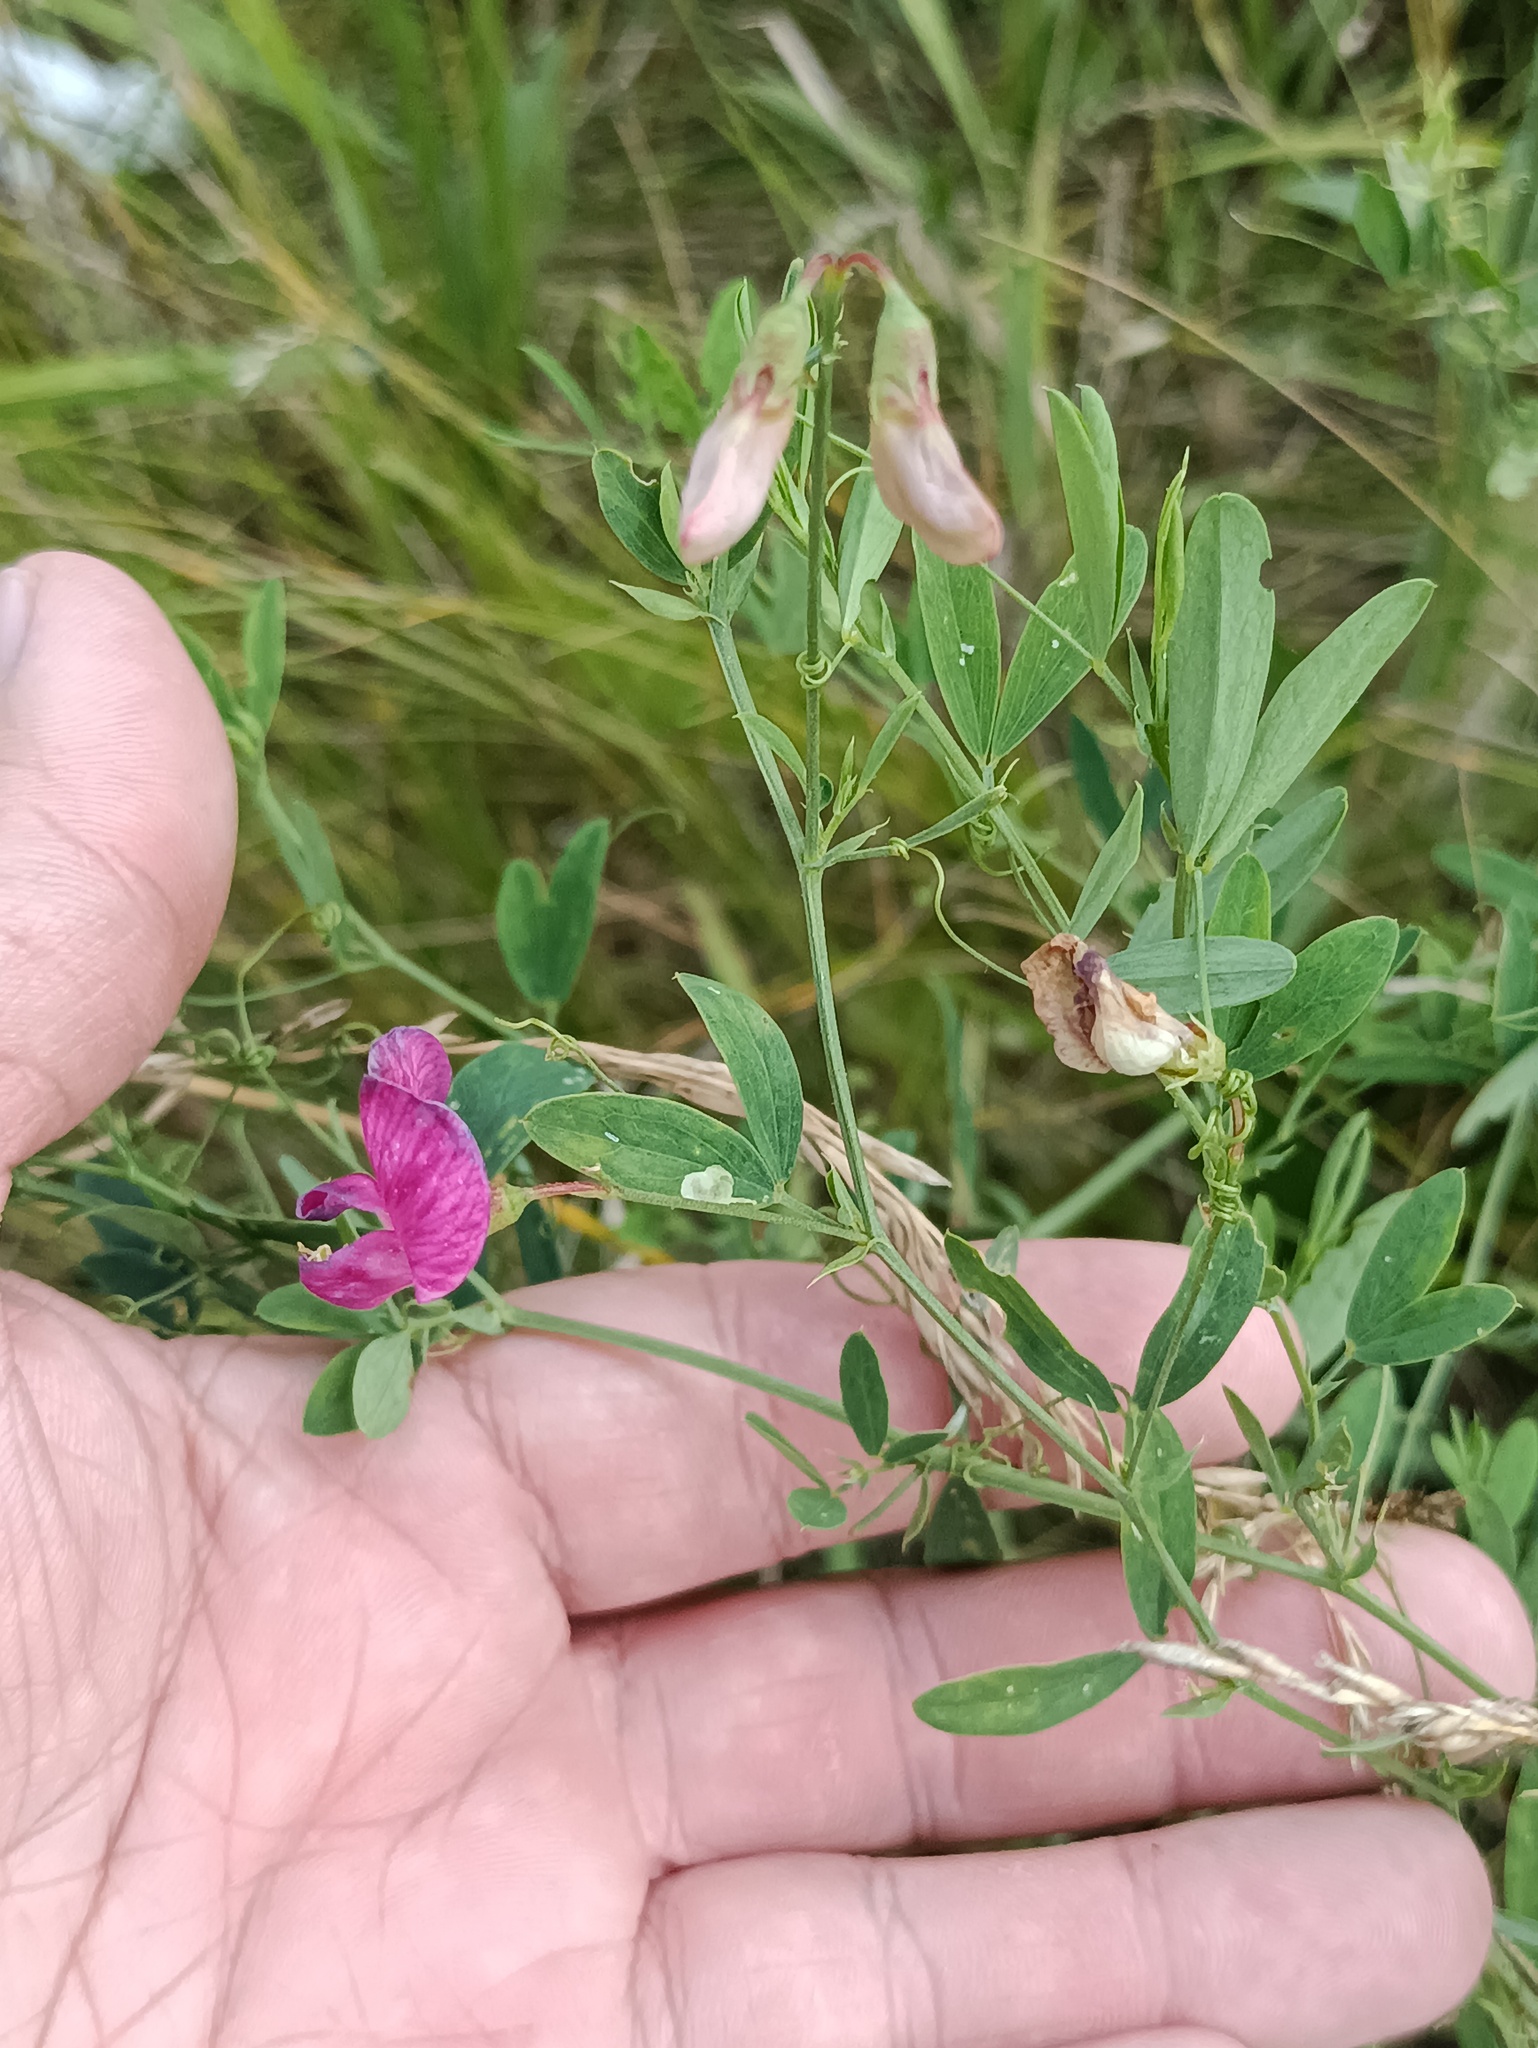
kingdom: Plantae
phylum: Tracheophyta
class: Magnoliopsida
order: Fabales
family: Fabaceae
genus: Lathyrus
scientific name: Lathyrus tuberosus
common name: Tuberous pea
